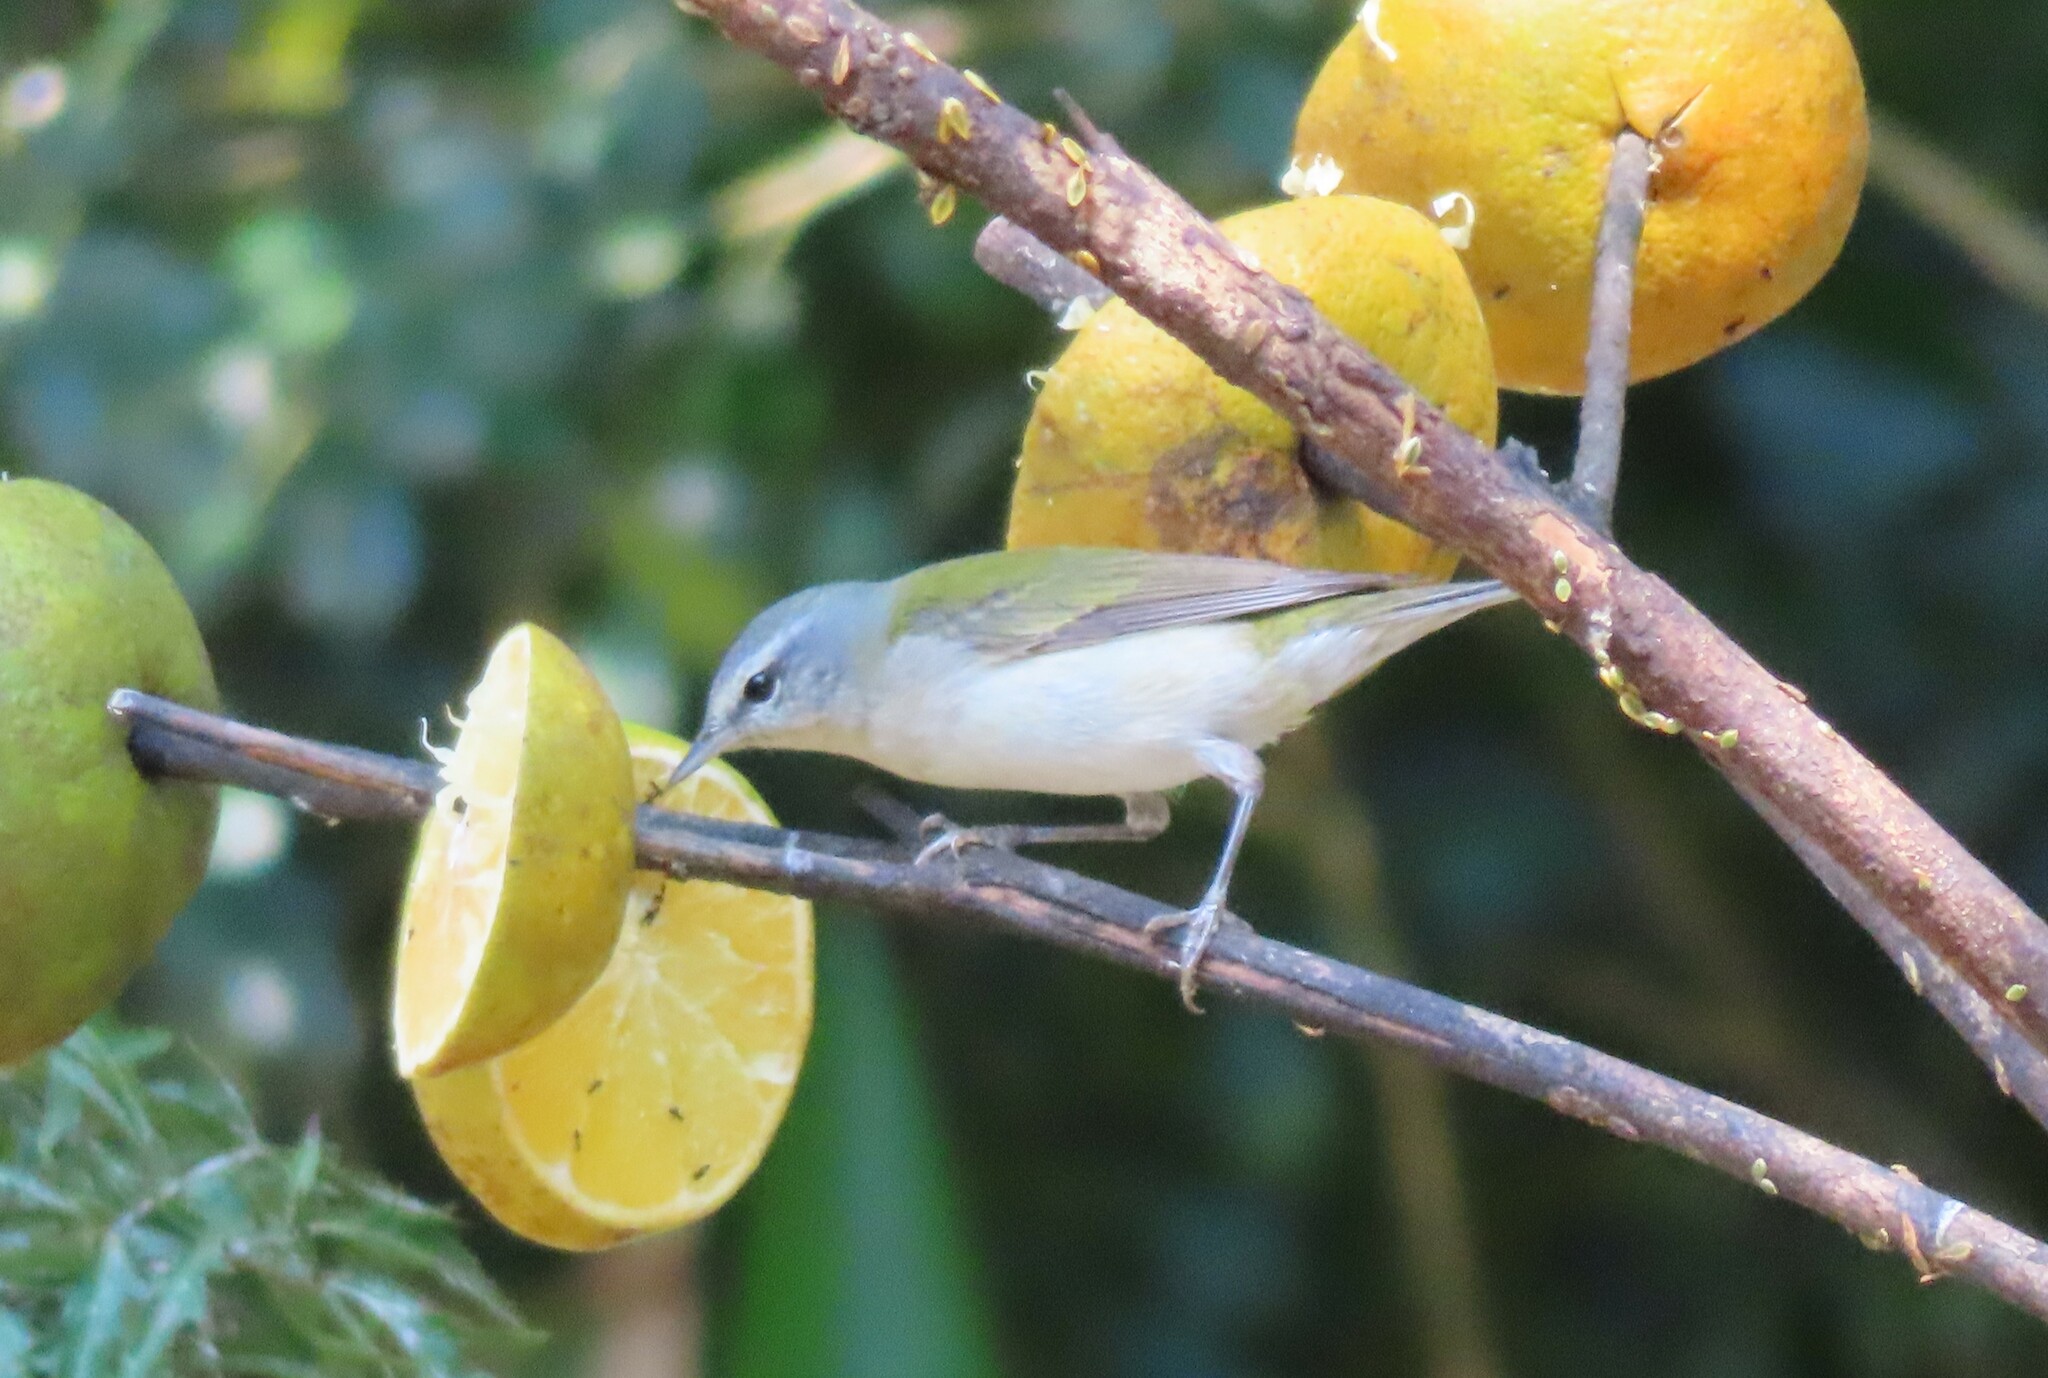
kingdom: Animalia
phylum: Chordata
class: Aves
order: Passeriformes
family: Parulidae
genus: Leiothlypis
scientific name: Leiothlypis peregrina
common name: Tennessee warbler
